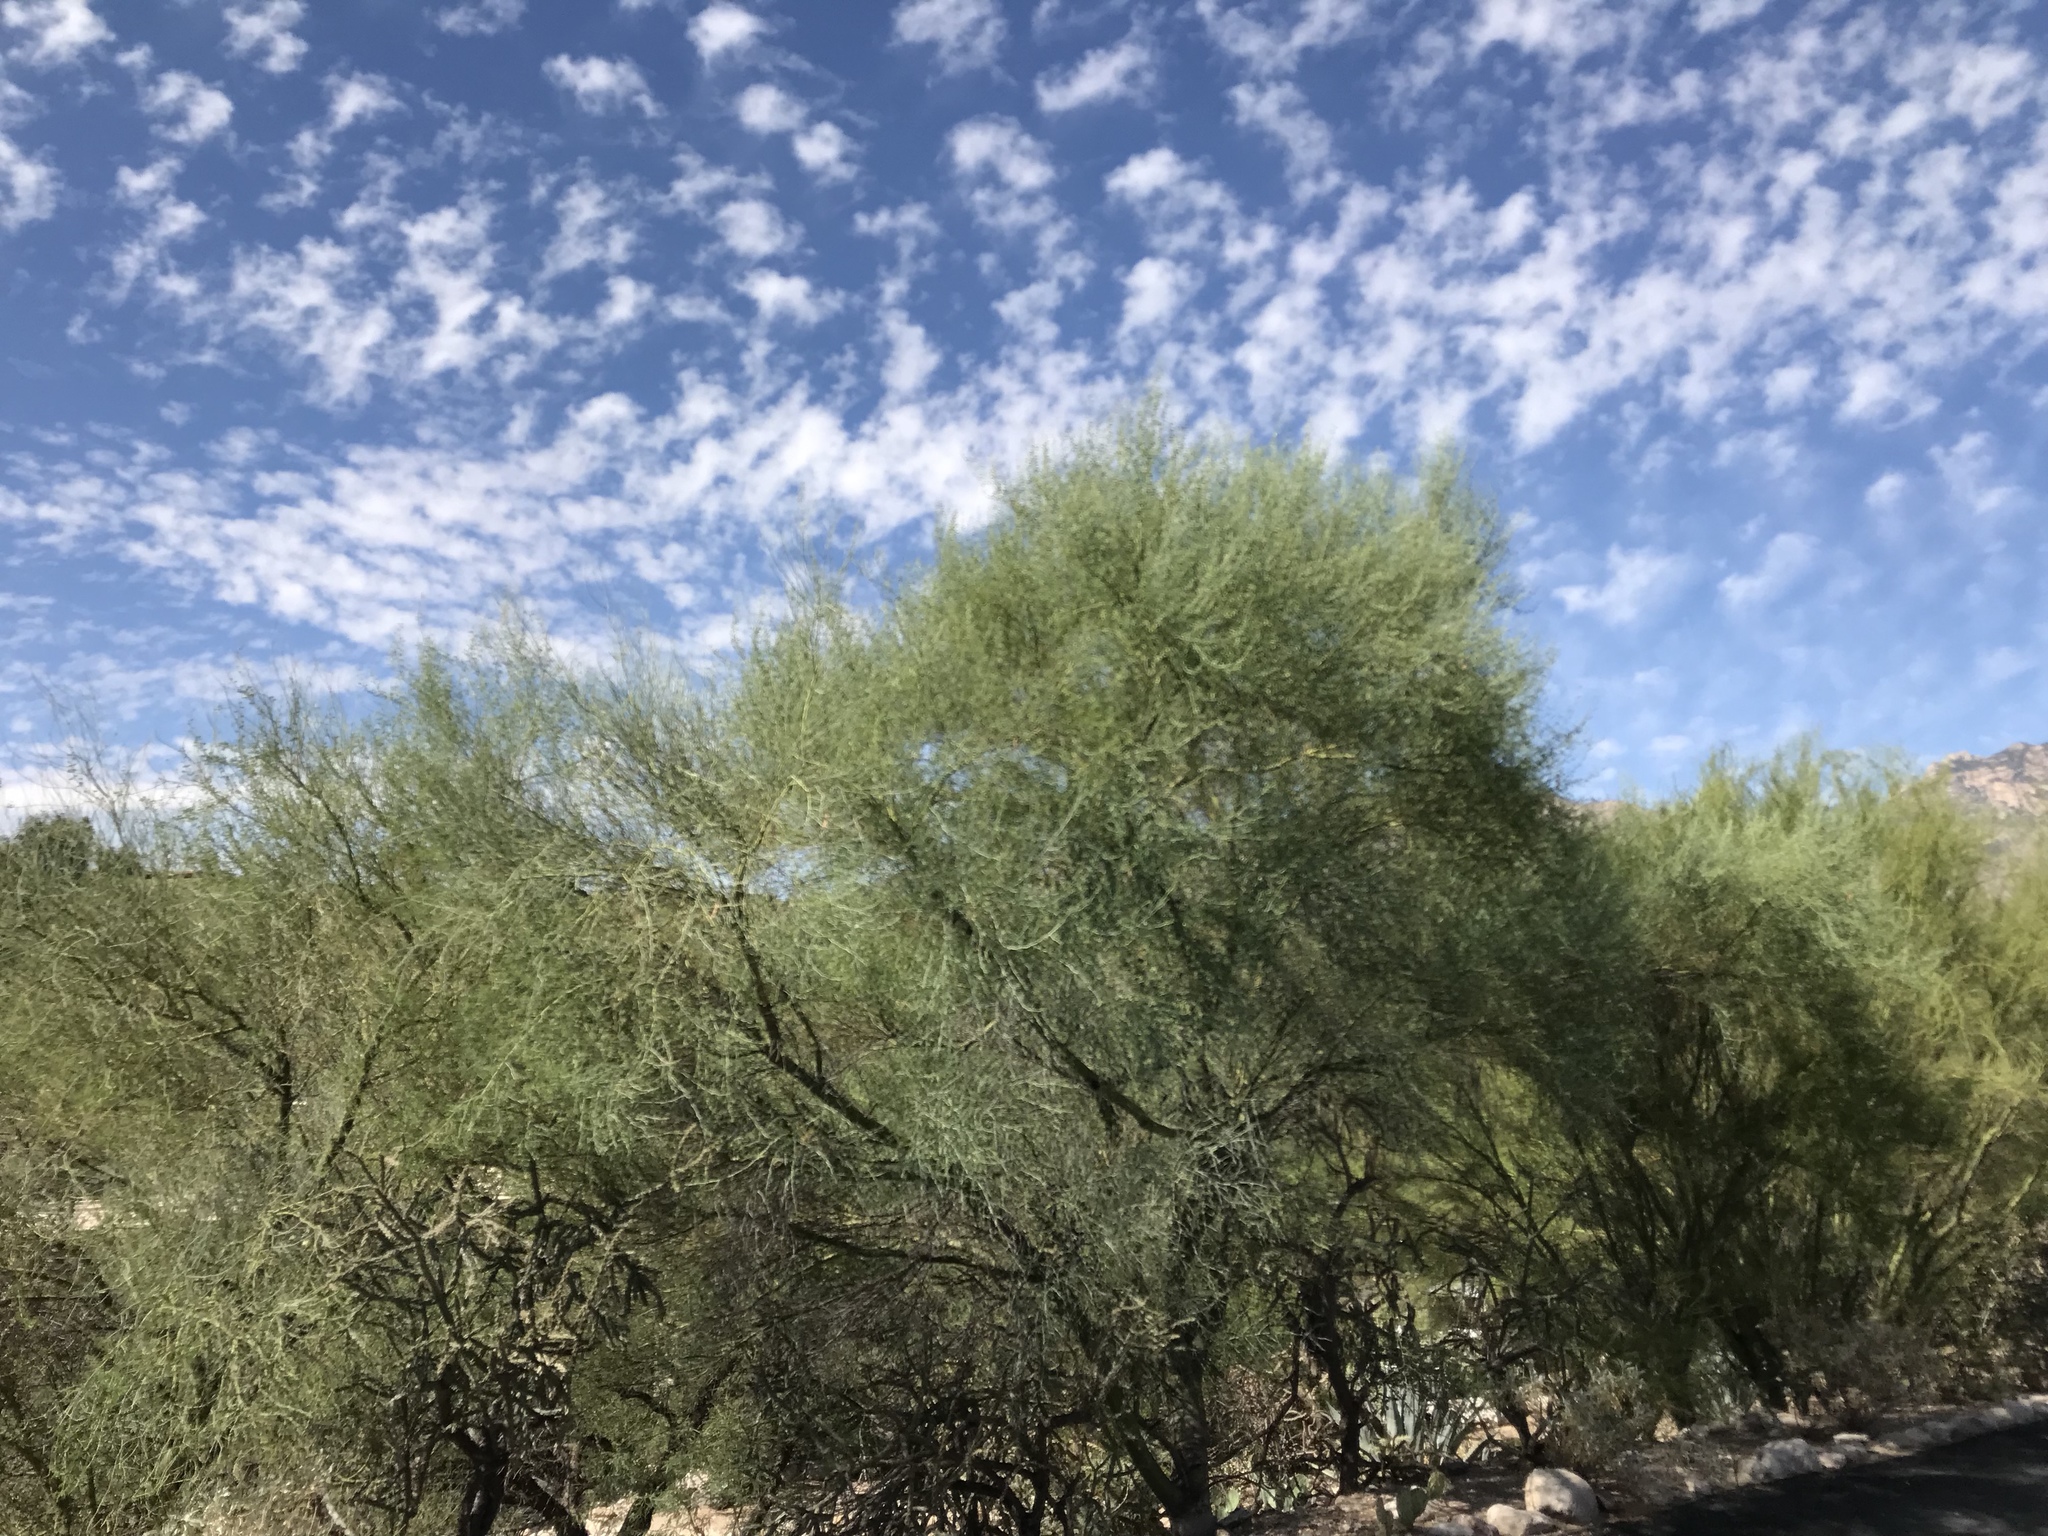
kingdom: Plantae
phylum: Tracheophyta
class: Magnoliopsida
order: Fabales
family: Fabaceae
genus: Parkinsonia
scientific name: Parkinsonia florida
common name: Blue paloverde
